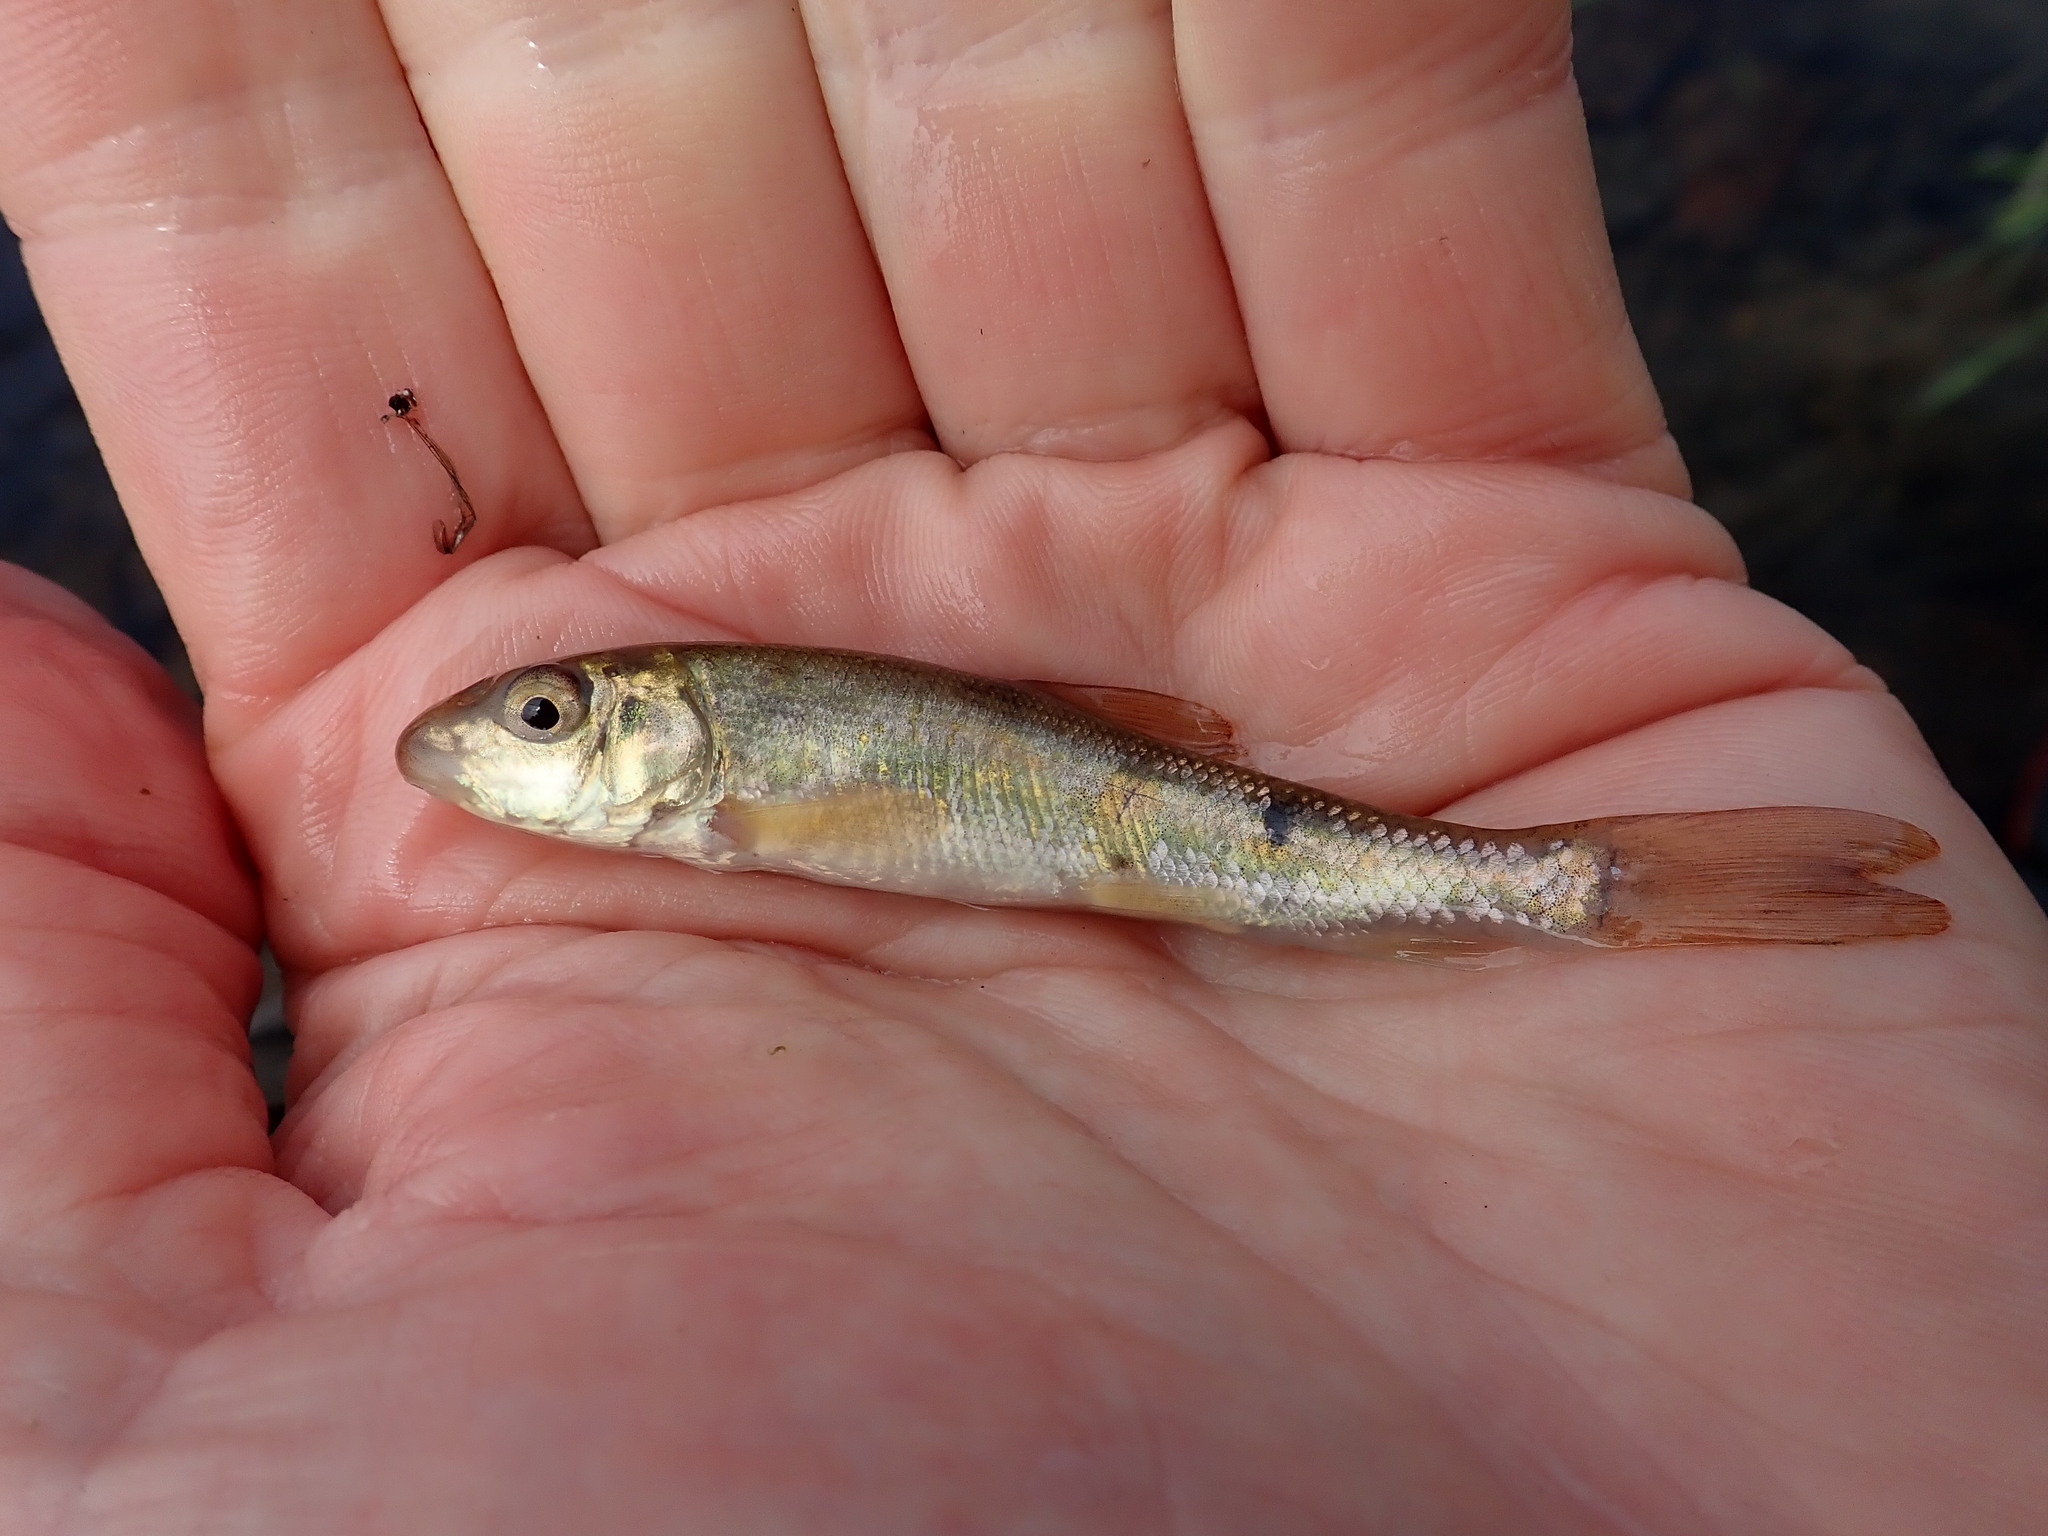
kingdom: Animalia
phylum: Chordata
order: Cypriniformes
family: Catostomidae
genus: Catostomus
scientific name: Catostomus commersonii
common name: White sucker
